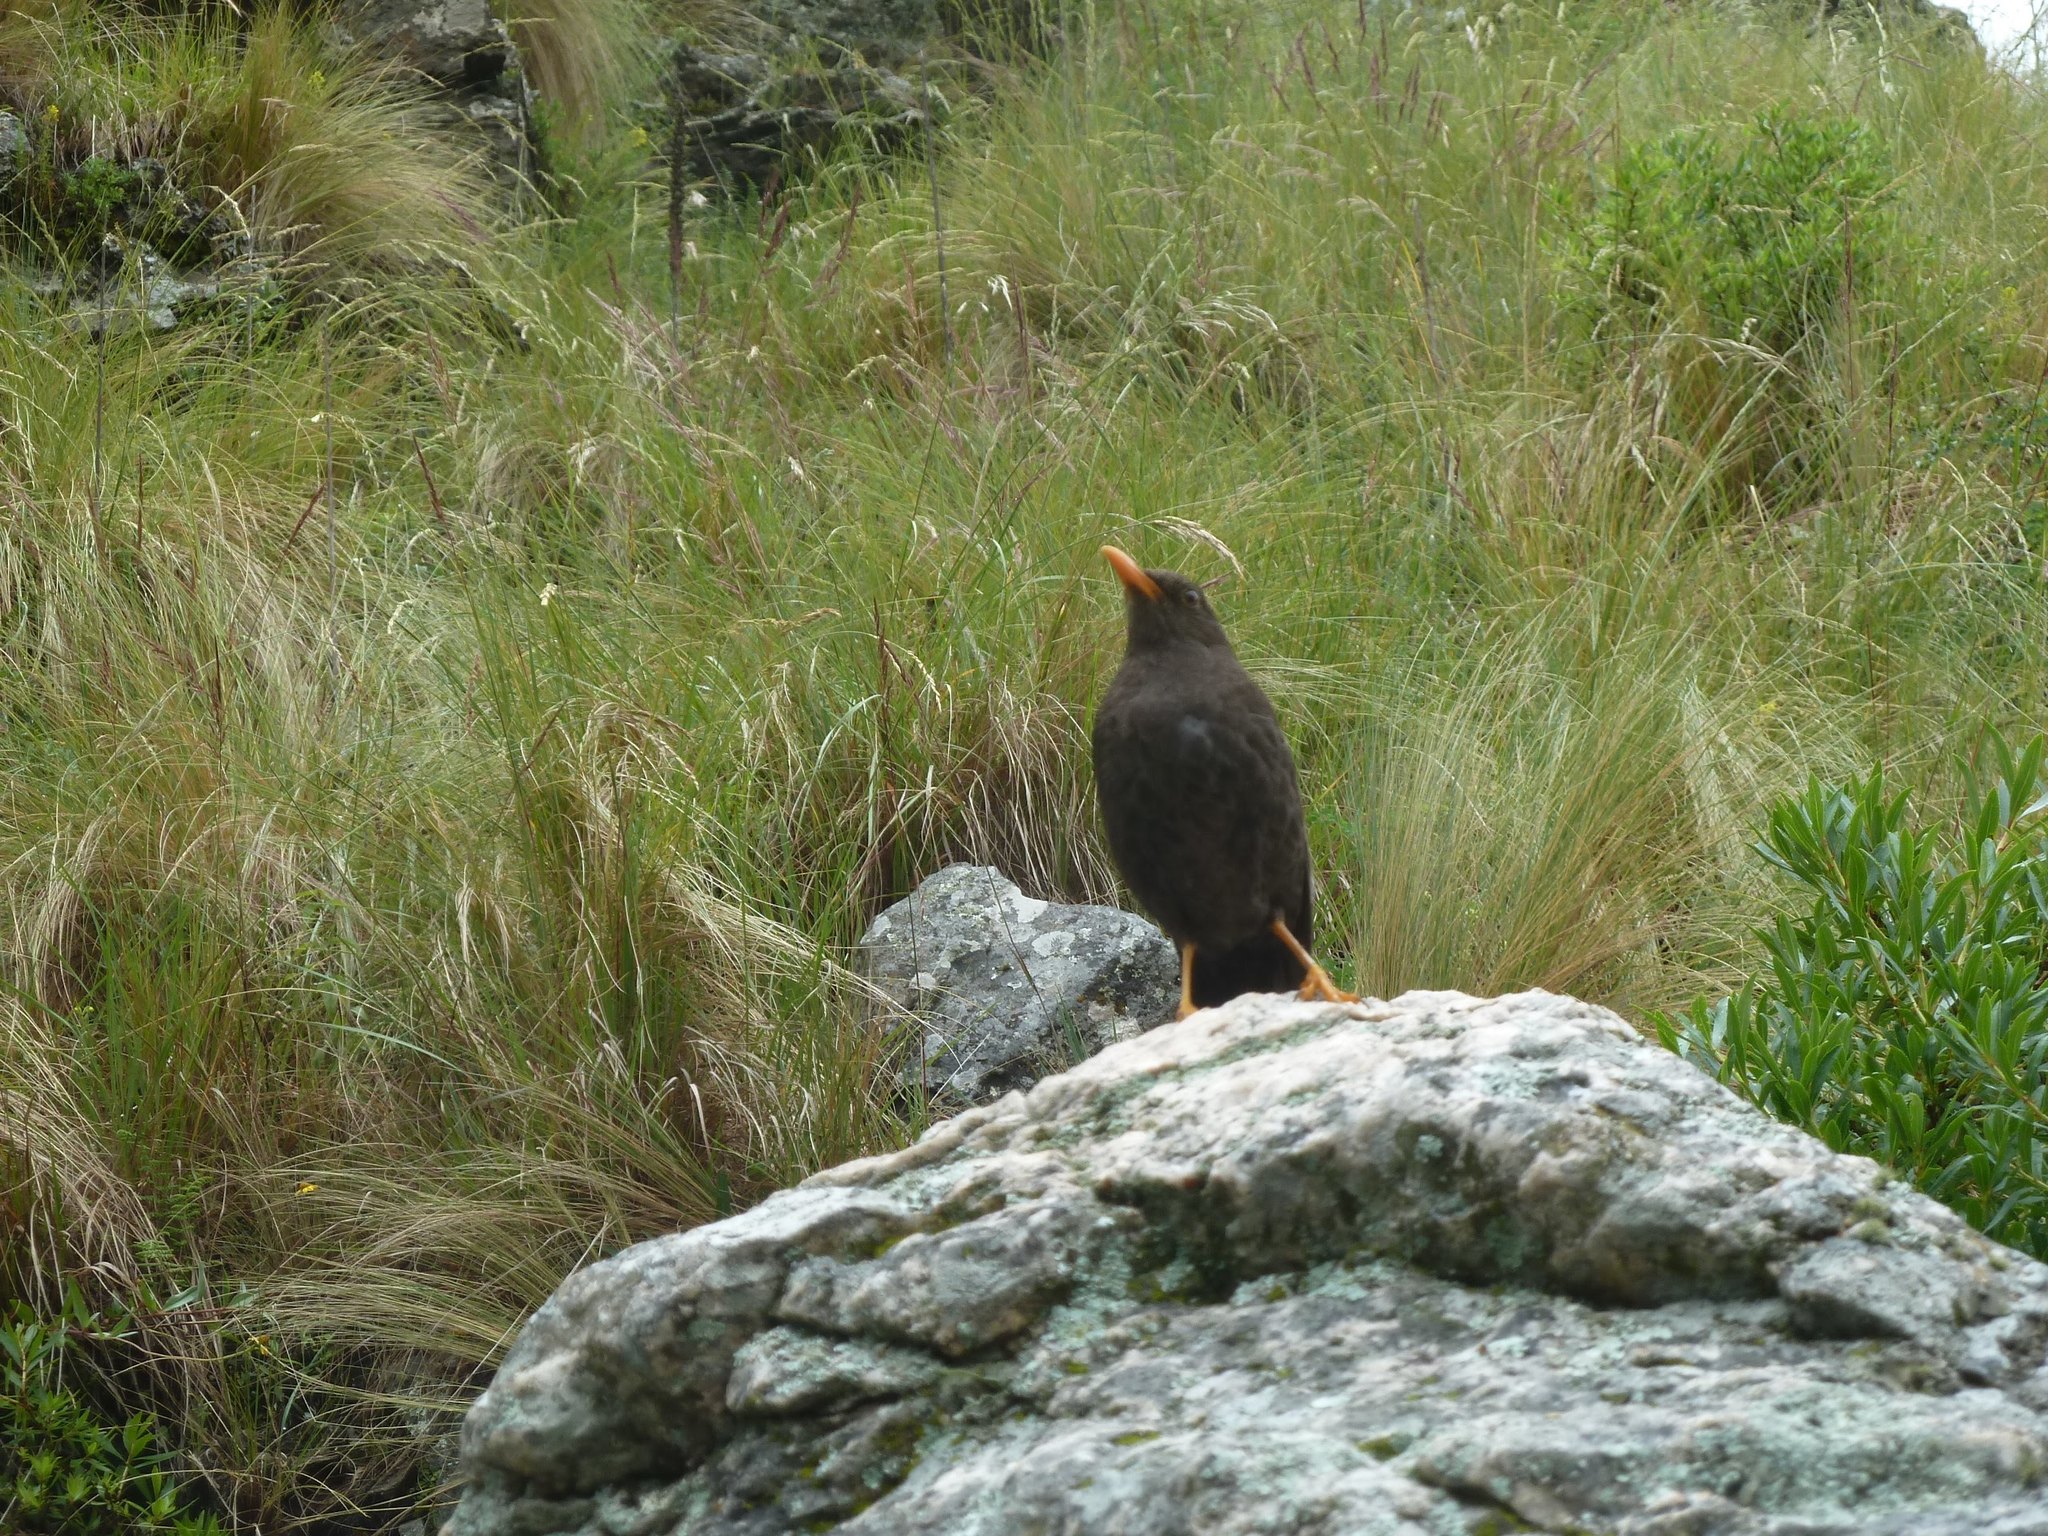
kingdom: Animalia
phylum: Chordata
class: Aves
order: Passeriformes
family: Turdidae
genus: Turdus
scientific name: Turdus chiguanco
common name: Chiguanco thrush
